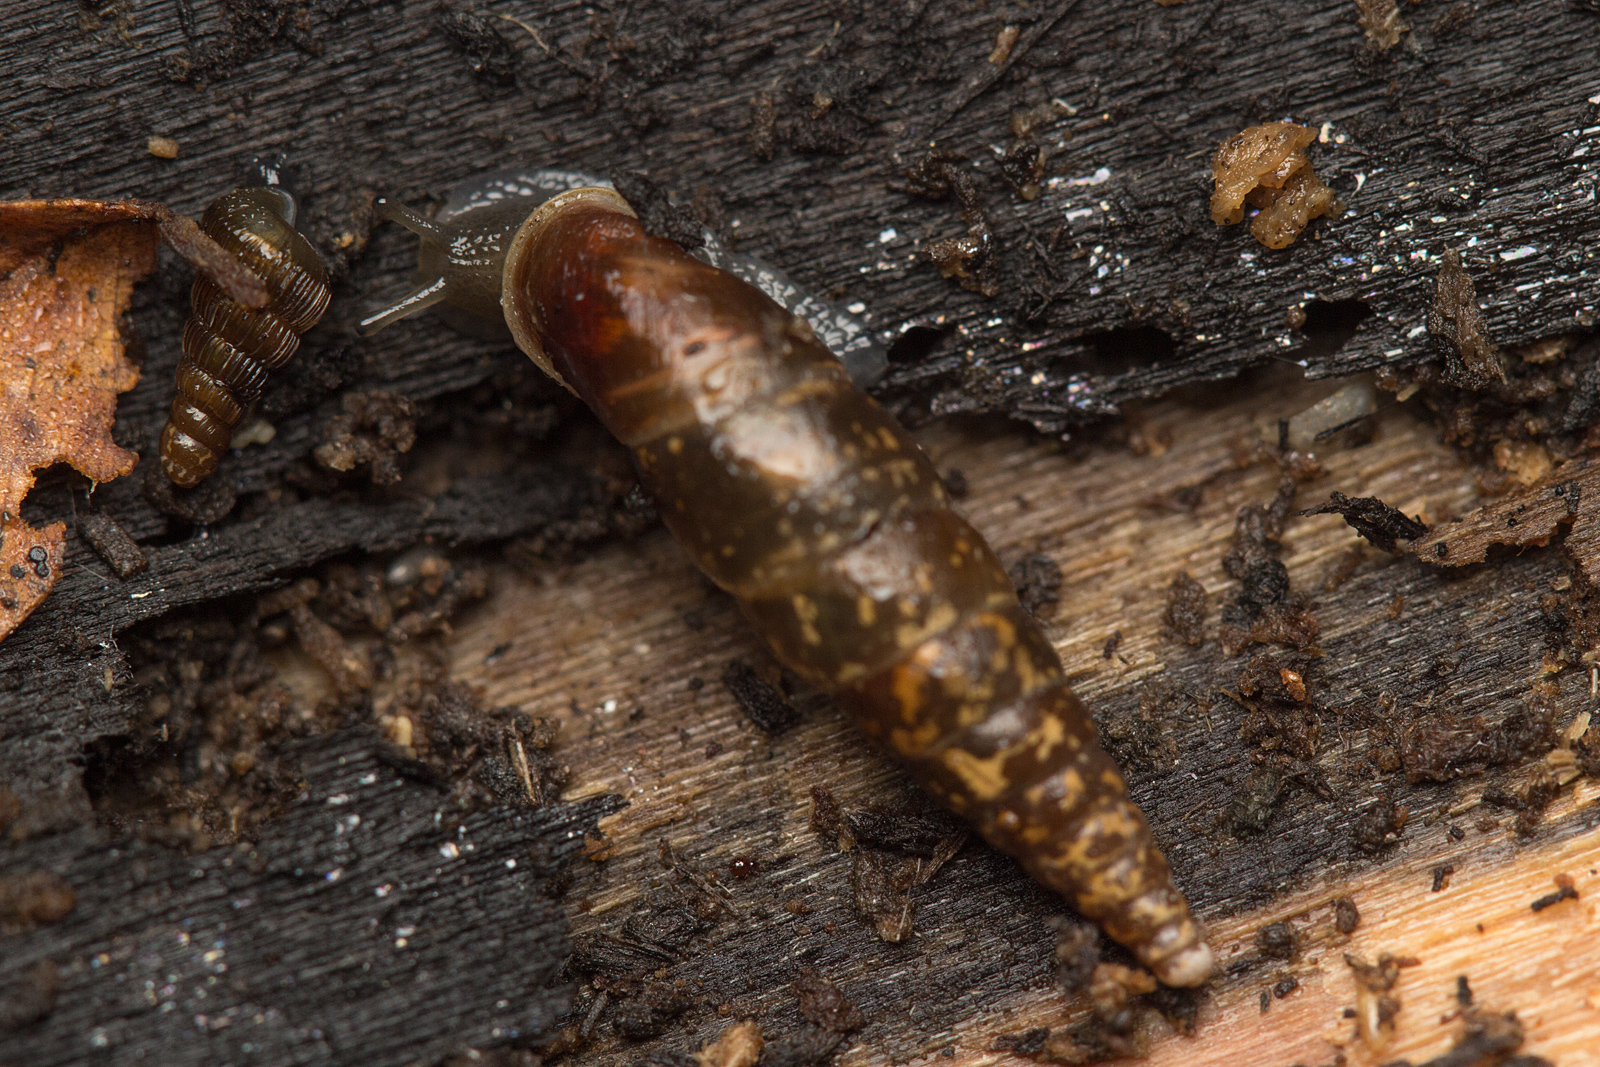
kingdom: Animalia
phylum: Mollusca
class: Gastropoda
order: Stylommatophora
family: Clausiliidae
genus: Cochlodina
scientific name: Cochlodina laminata
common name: Plaited door snail
